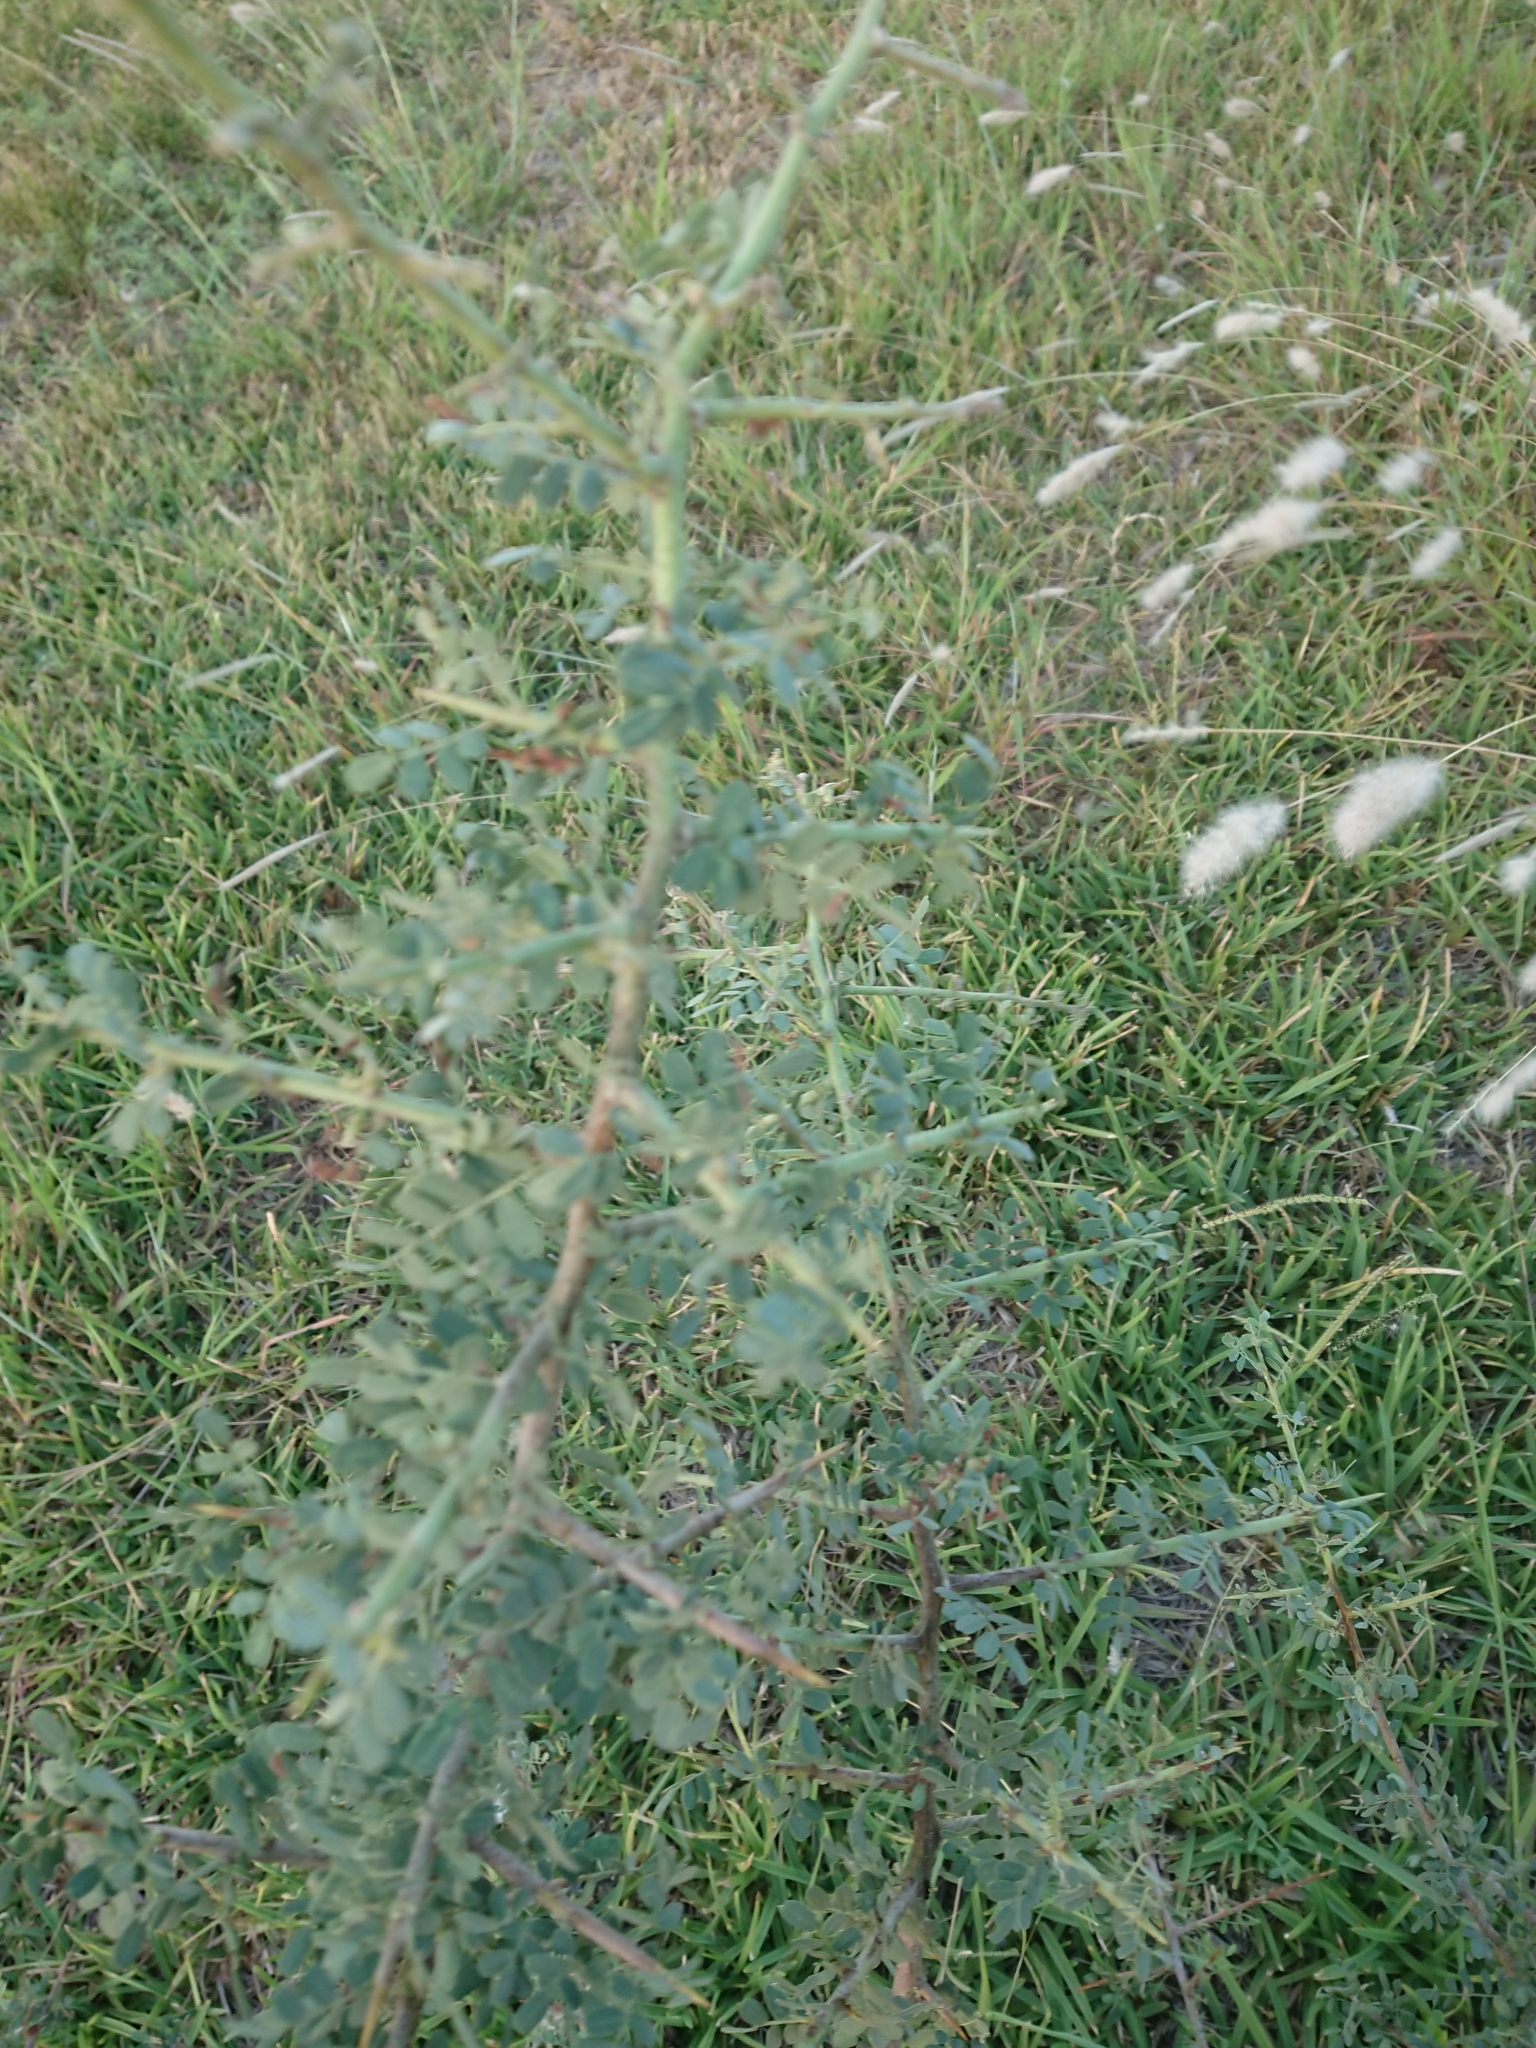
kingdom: Plantae
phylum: Tracheophyta
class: Magnoliopsida
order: Fabales
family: Fabaceae
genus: Geoffroea
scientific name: Geoffroea decorticans
